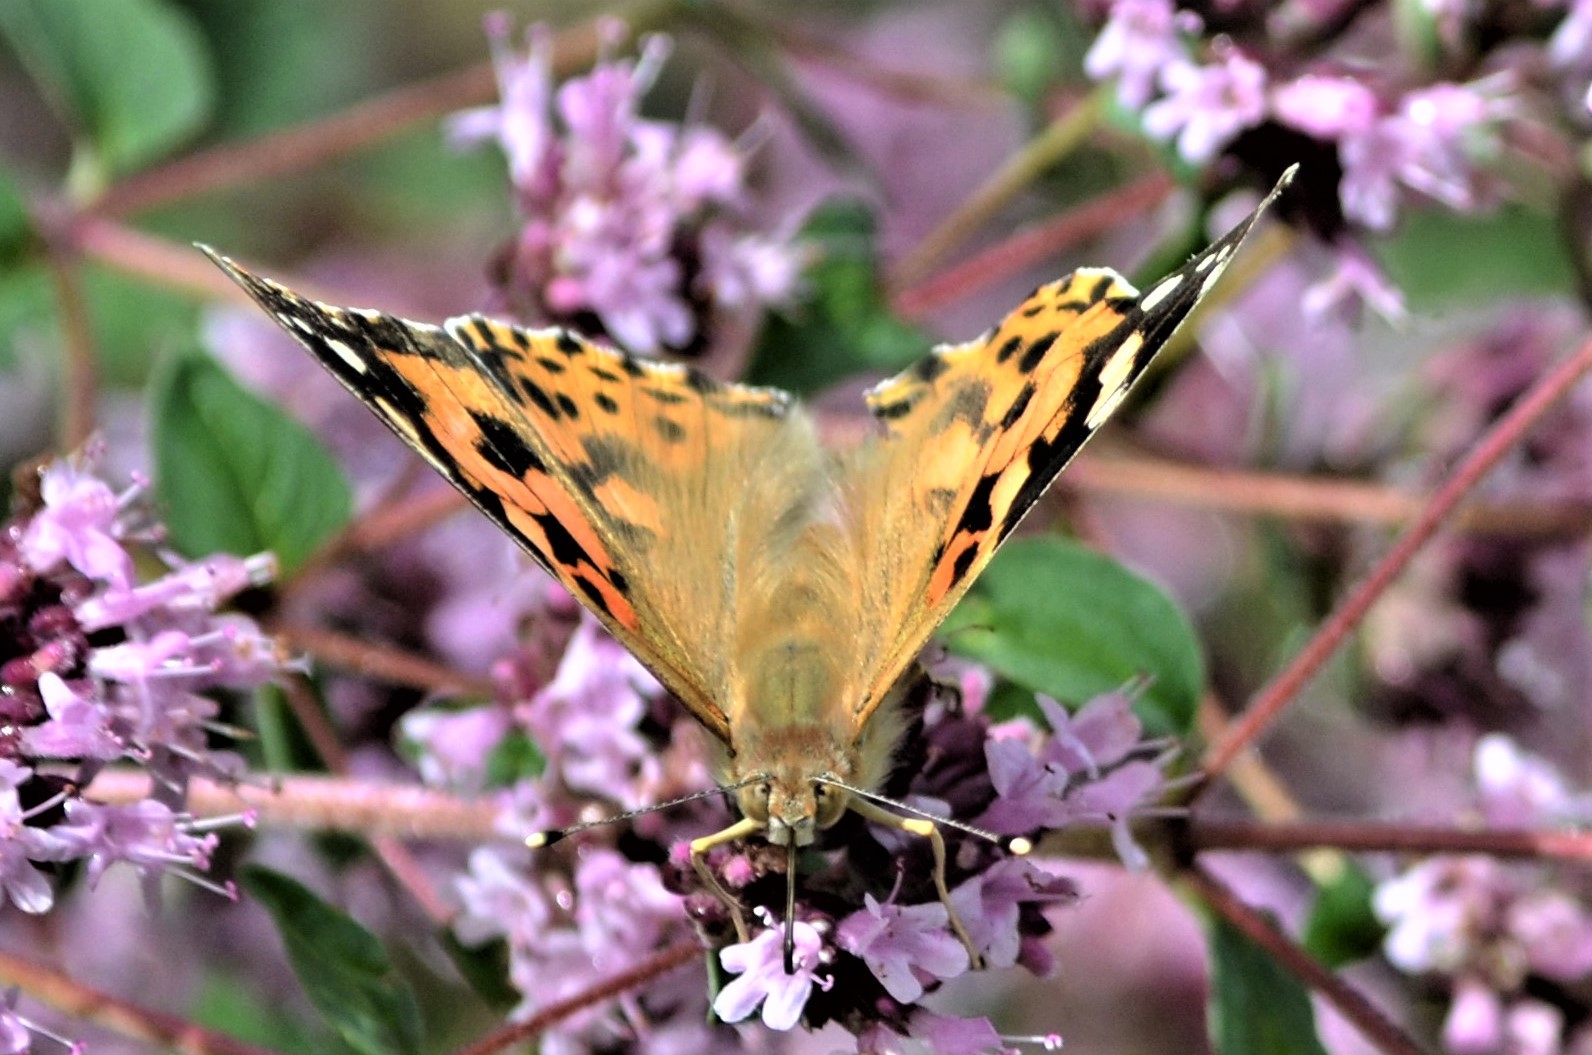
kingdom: Animalia
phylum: Arthropoda
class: Insecta
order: Lepidoptera
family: Nymphalidae
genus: Vanessa
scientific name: Vanessa cardui
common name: Painted lady
